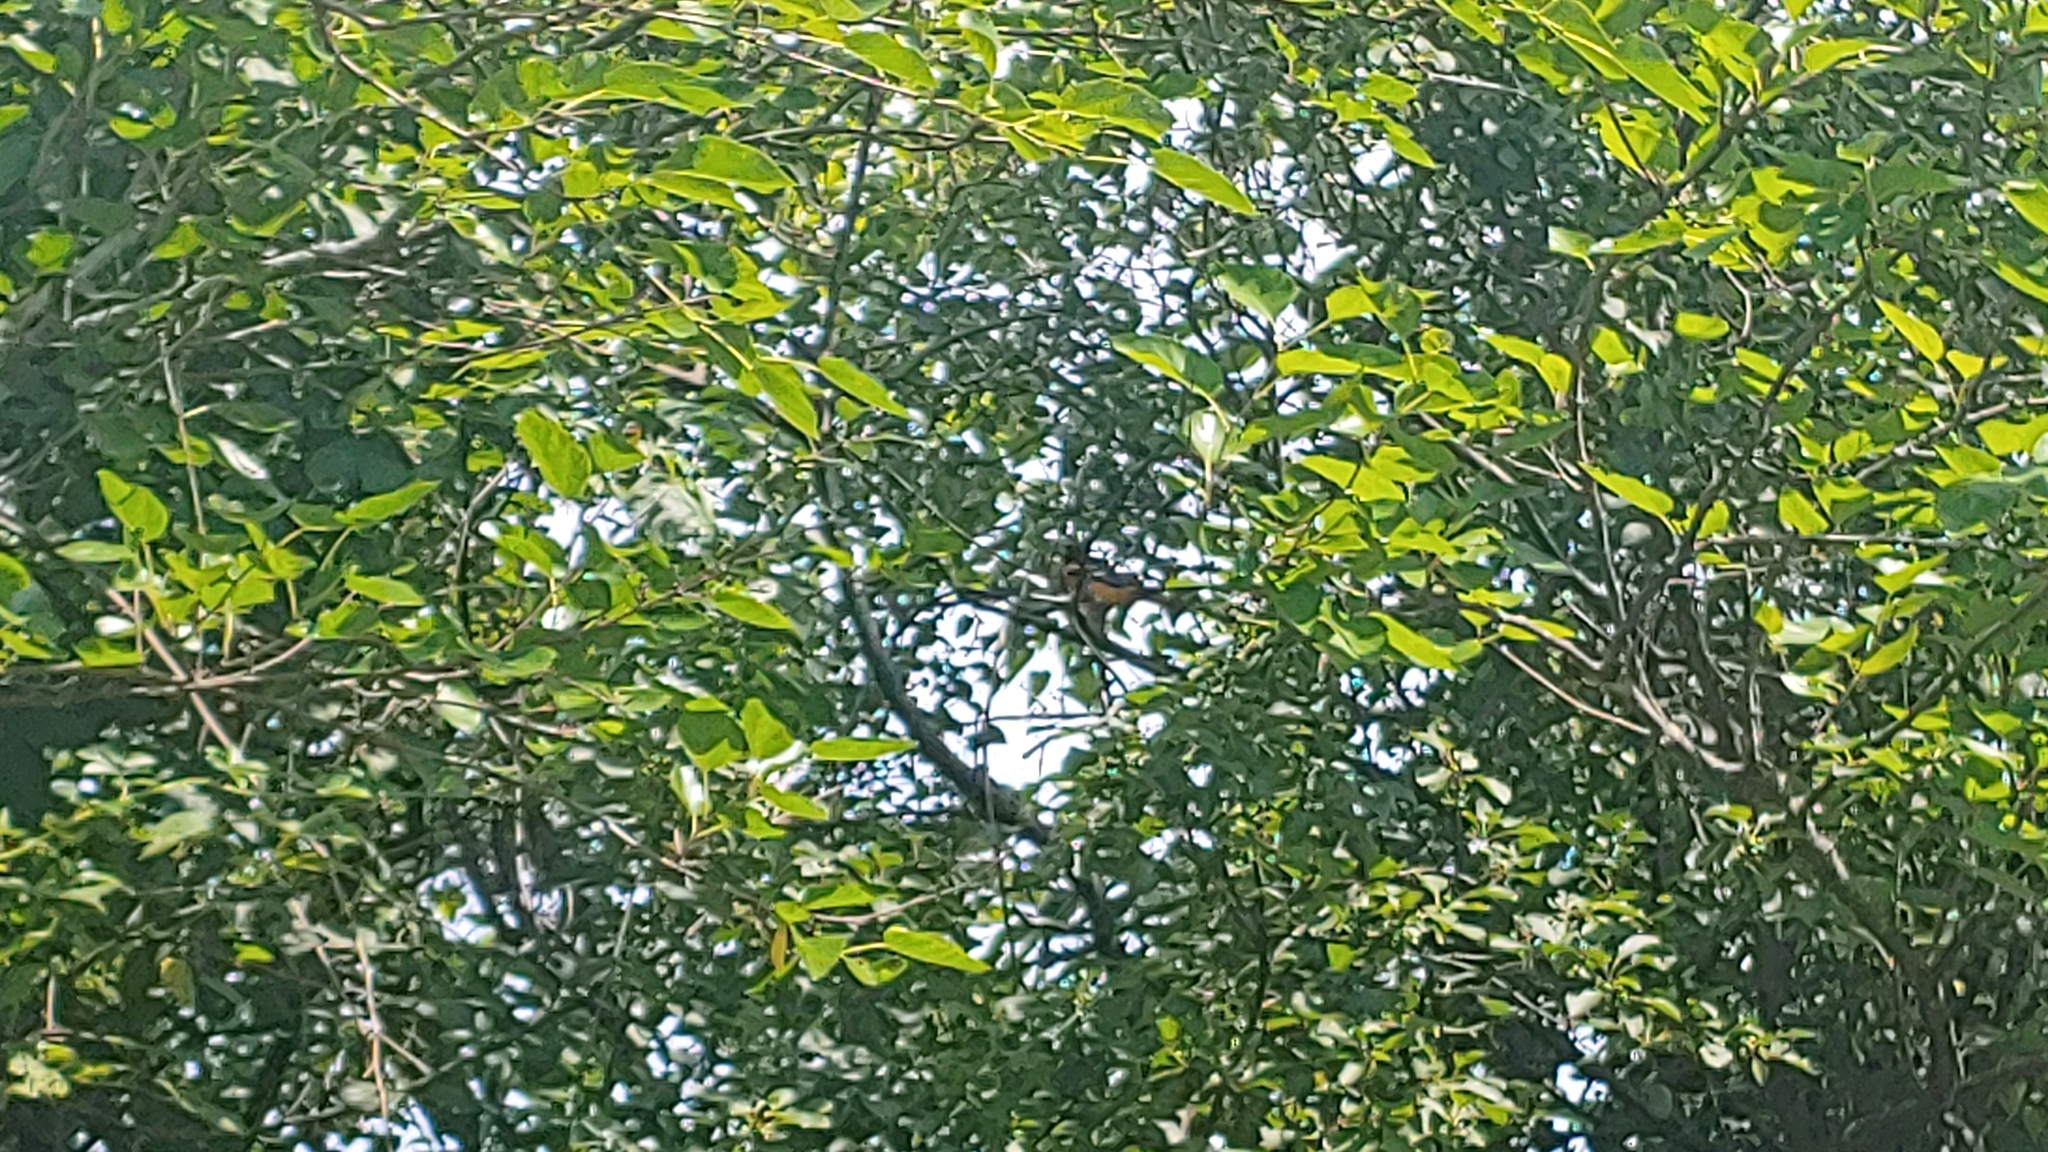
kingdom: Animalia
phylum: Chordata
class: Aves
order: Passeriformes
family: Icteridae
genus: Icterus
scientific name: Icterus galbula
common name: Baltimore oriole
